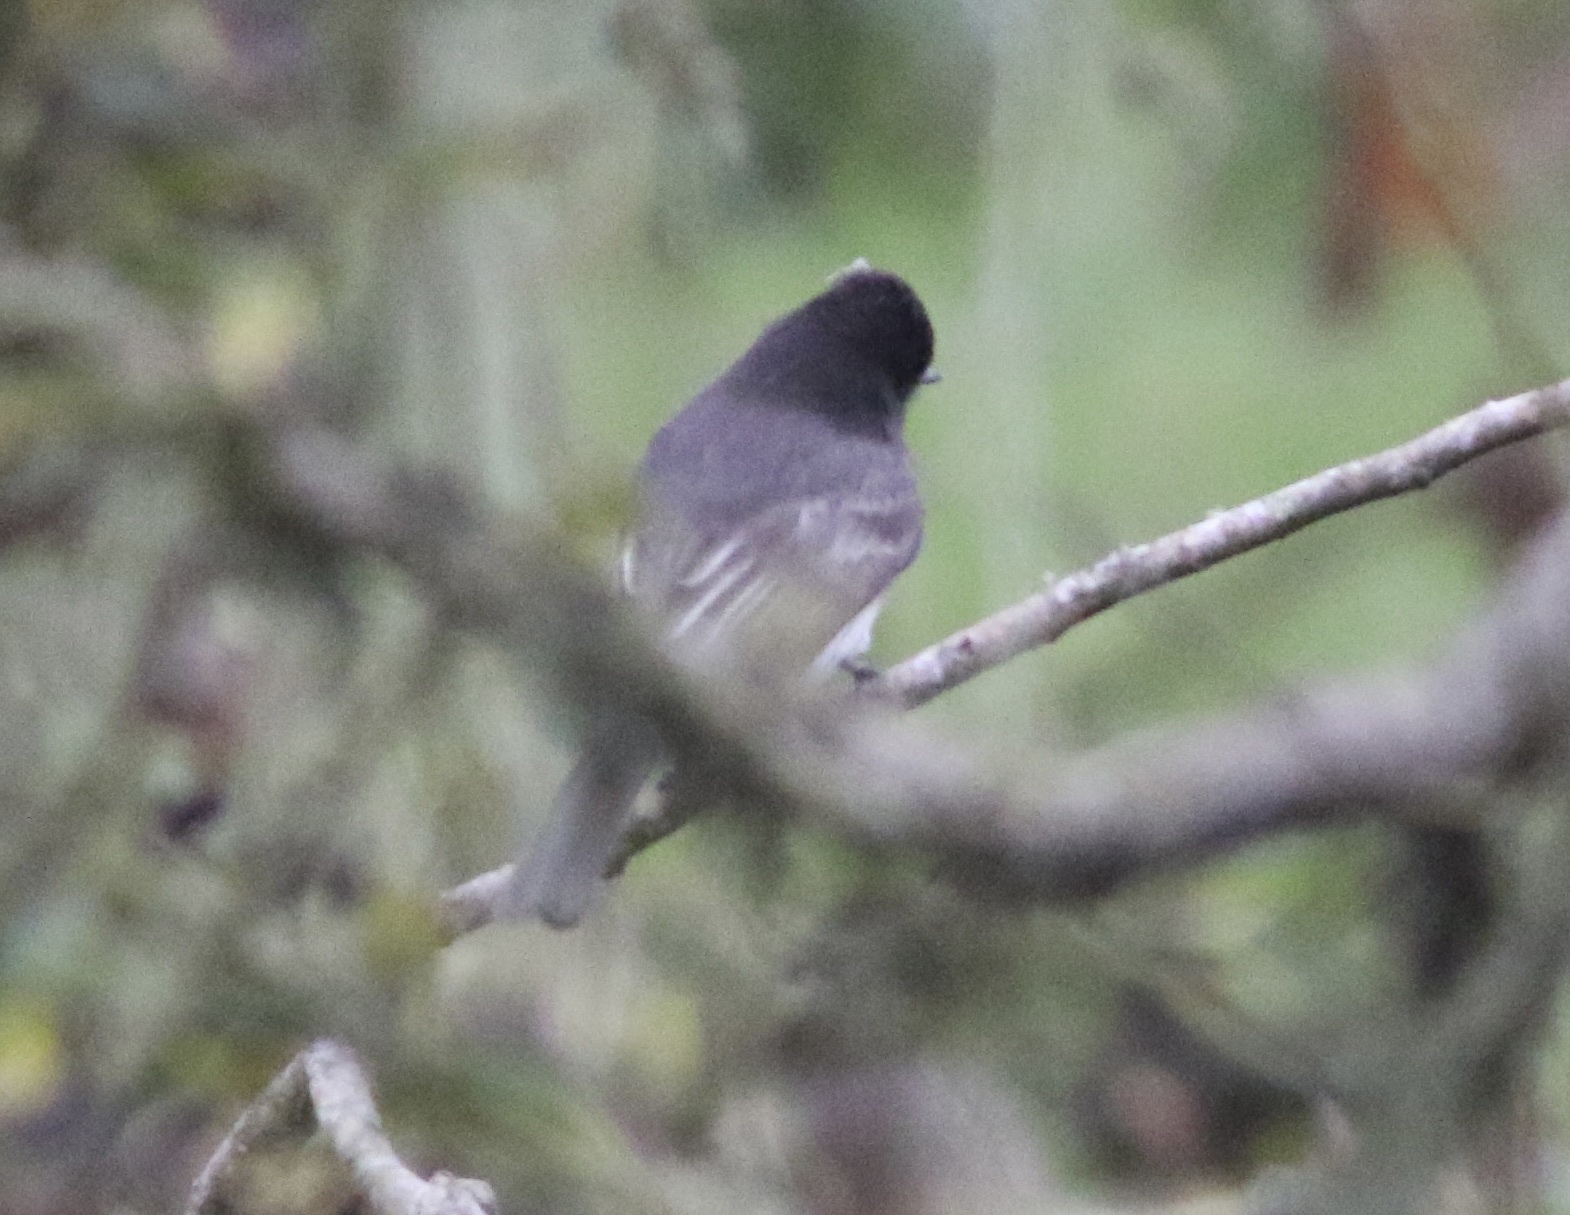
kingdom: Animalia
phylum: Chordata
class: Aves
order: Passeriformes
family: Tyrannidae
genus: Sayornis
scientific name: Sayornis nigricans
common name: Black phoebe
